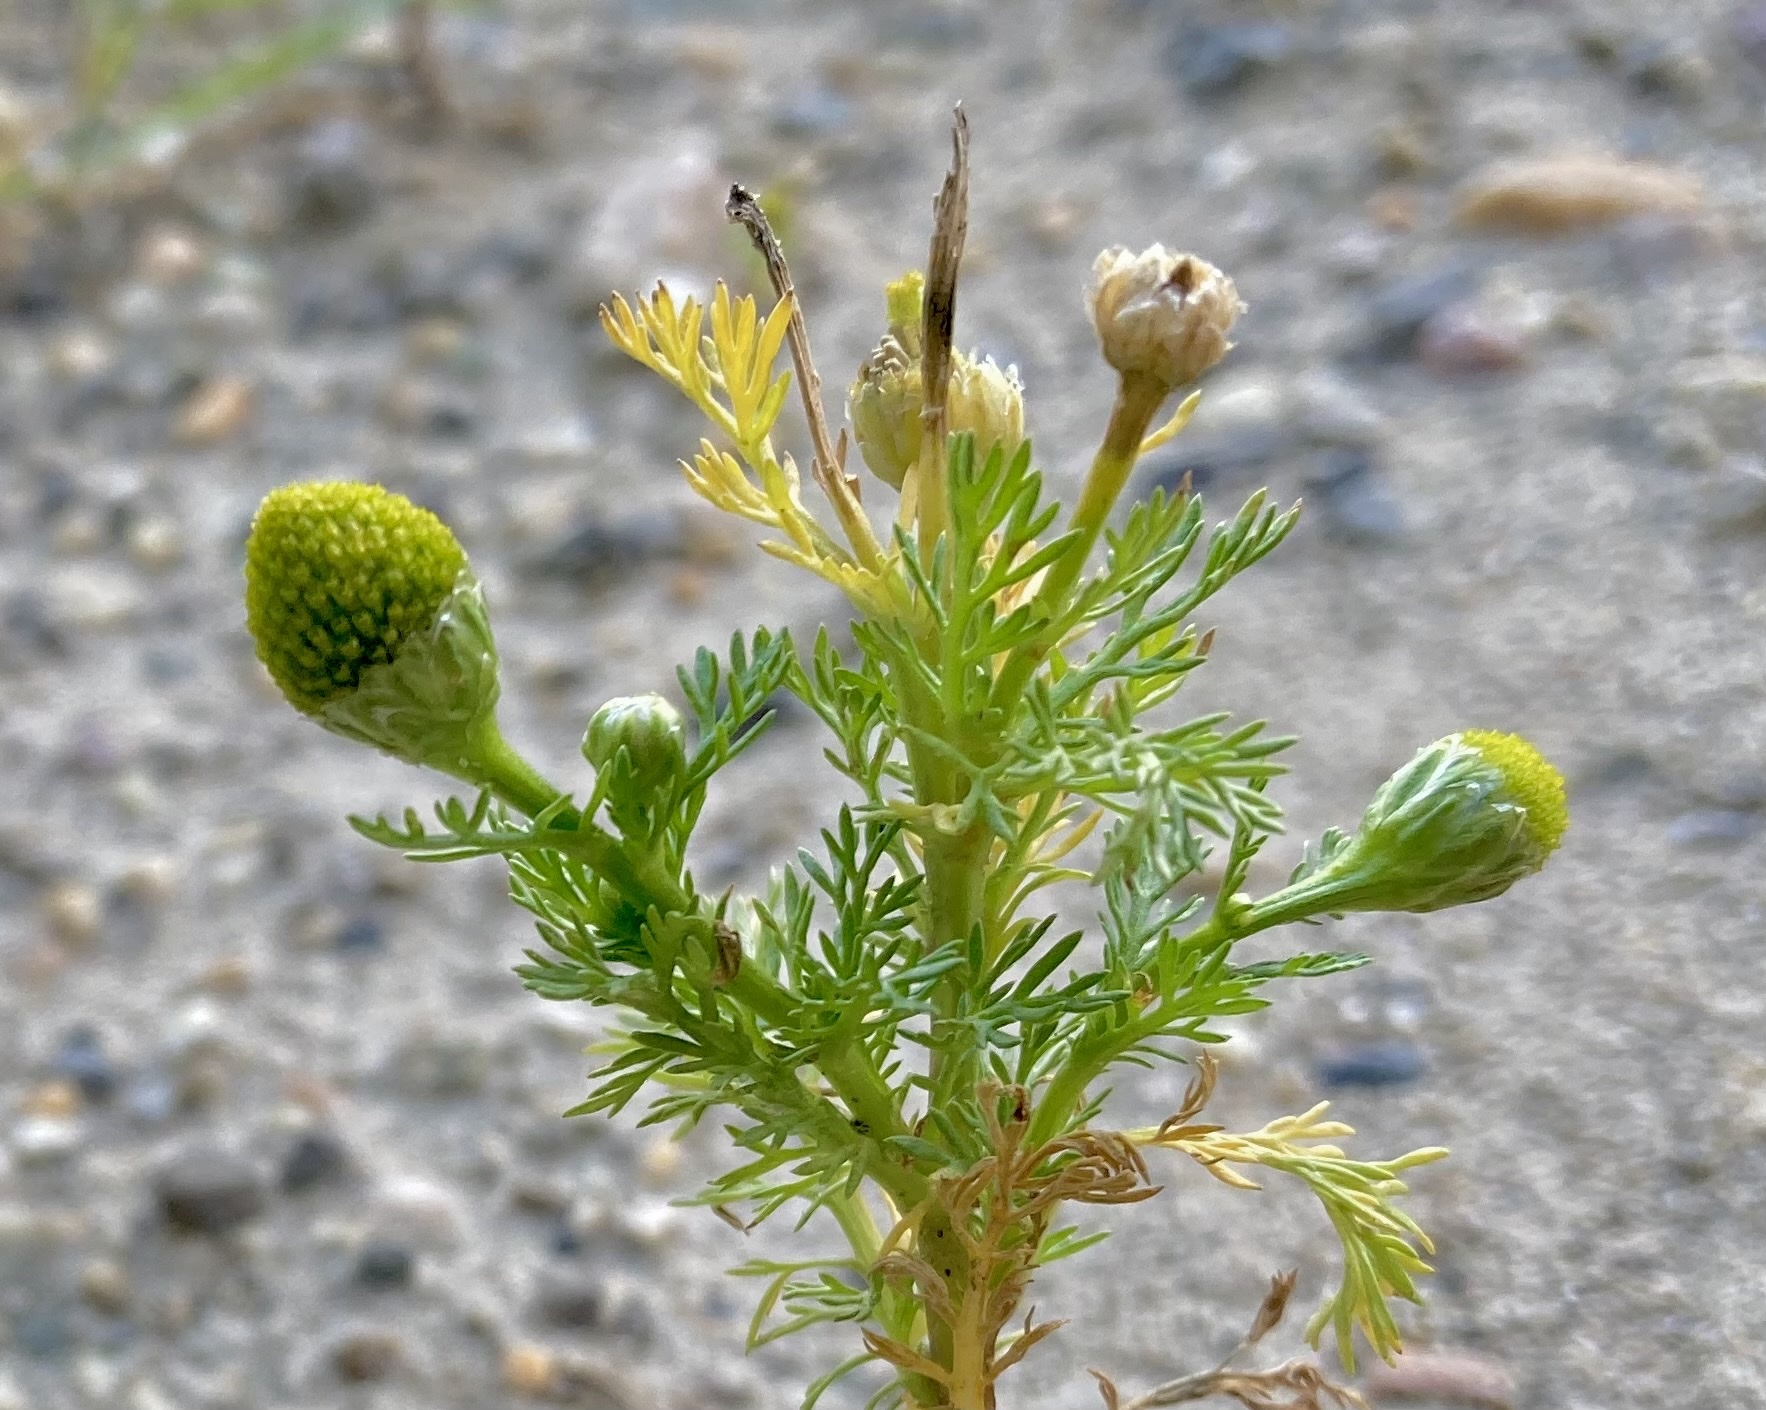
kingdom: Plantae
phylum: Tracheophyta
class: Magnoliopsida
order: Asterales
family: Asteraceae
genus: Matricaria
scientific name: Matricaria discoidea
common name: Disc mayweed
